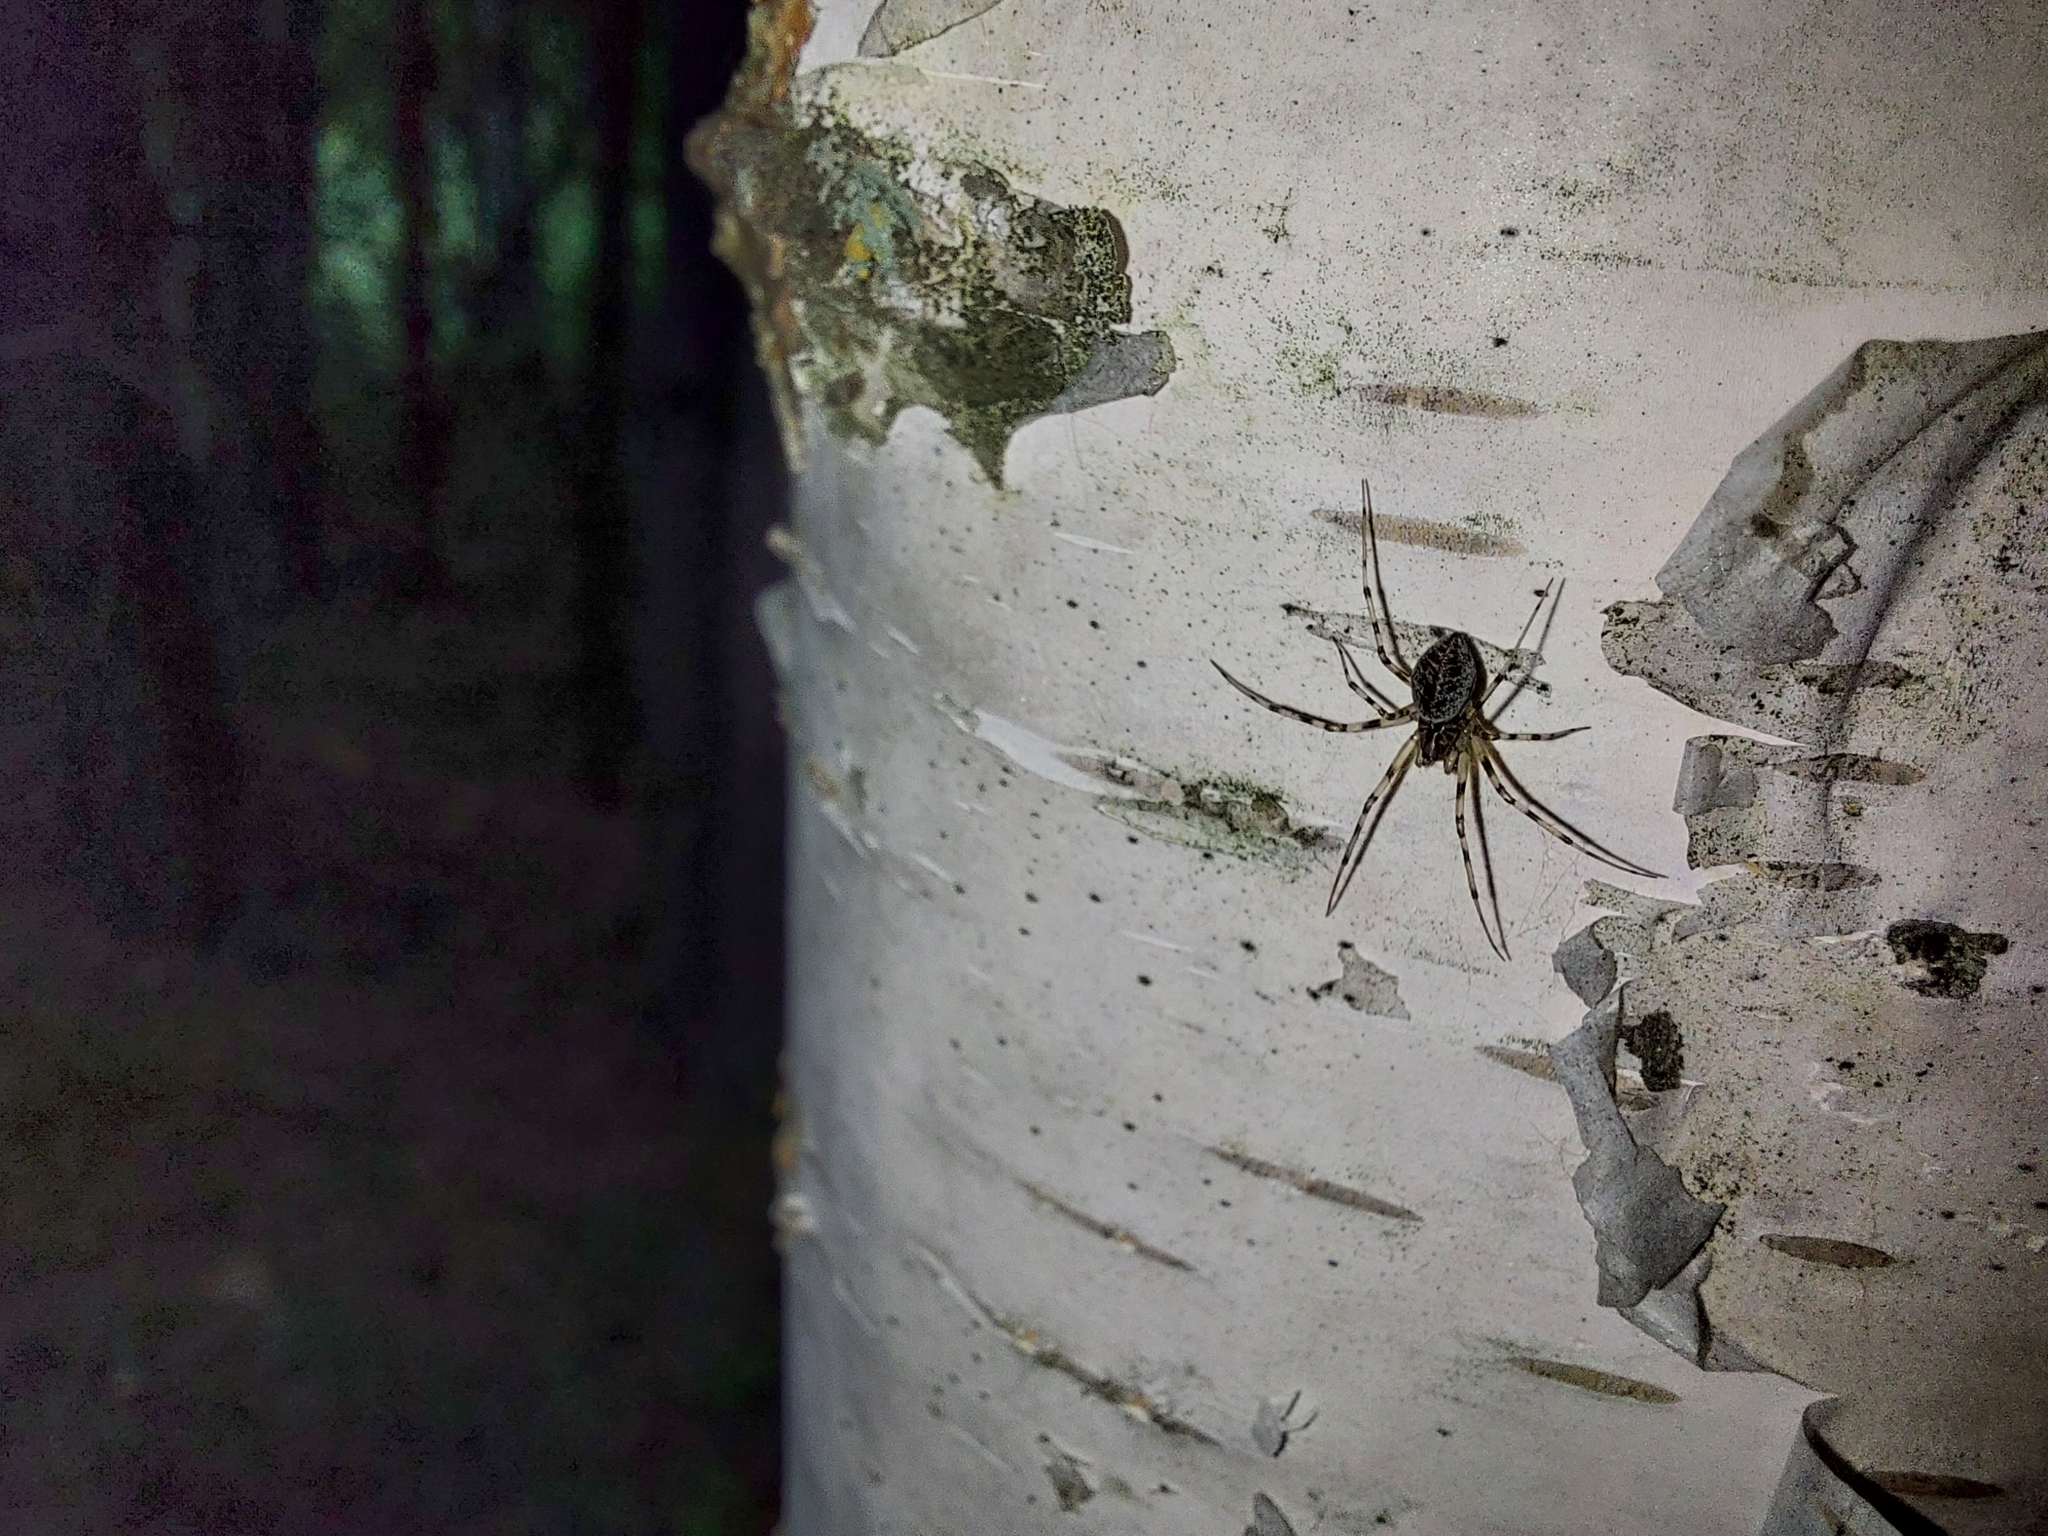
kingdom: Animalia
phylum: Arthropoda
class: Arachnida
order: Araneae
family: Linyphiidae
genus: Drapetisca
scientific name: Drapetisca socialis
